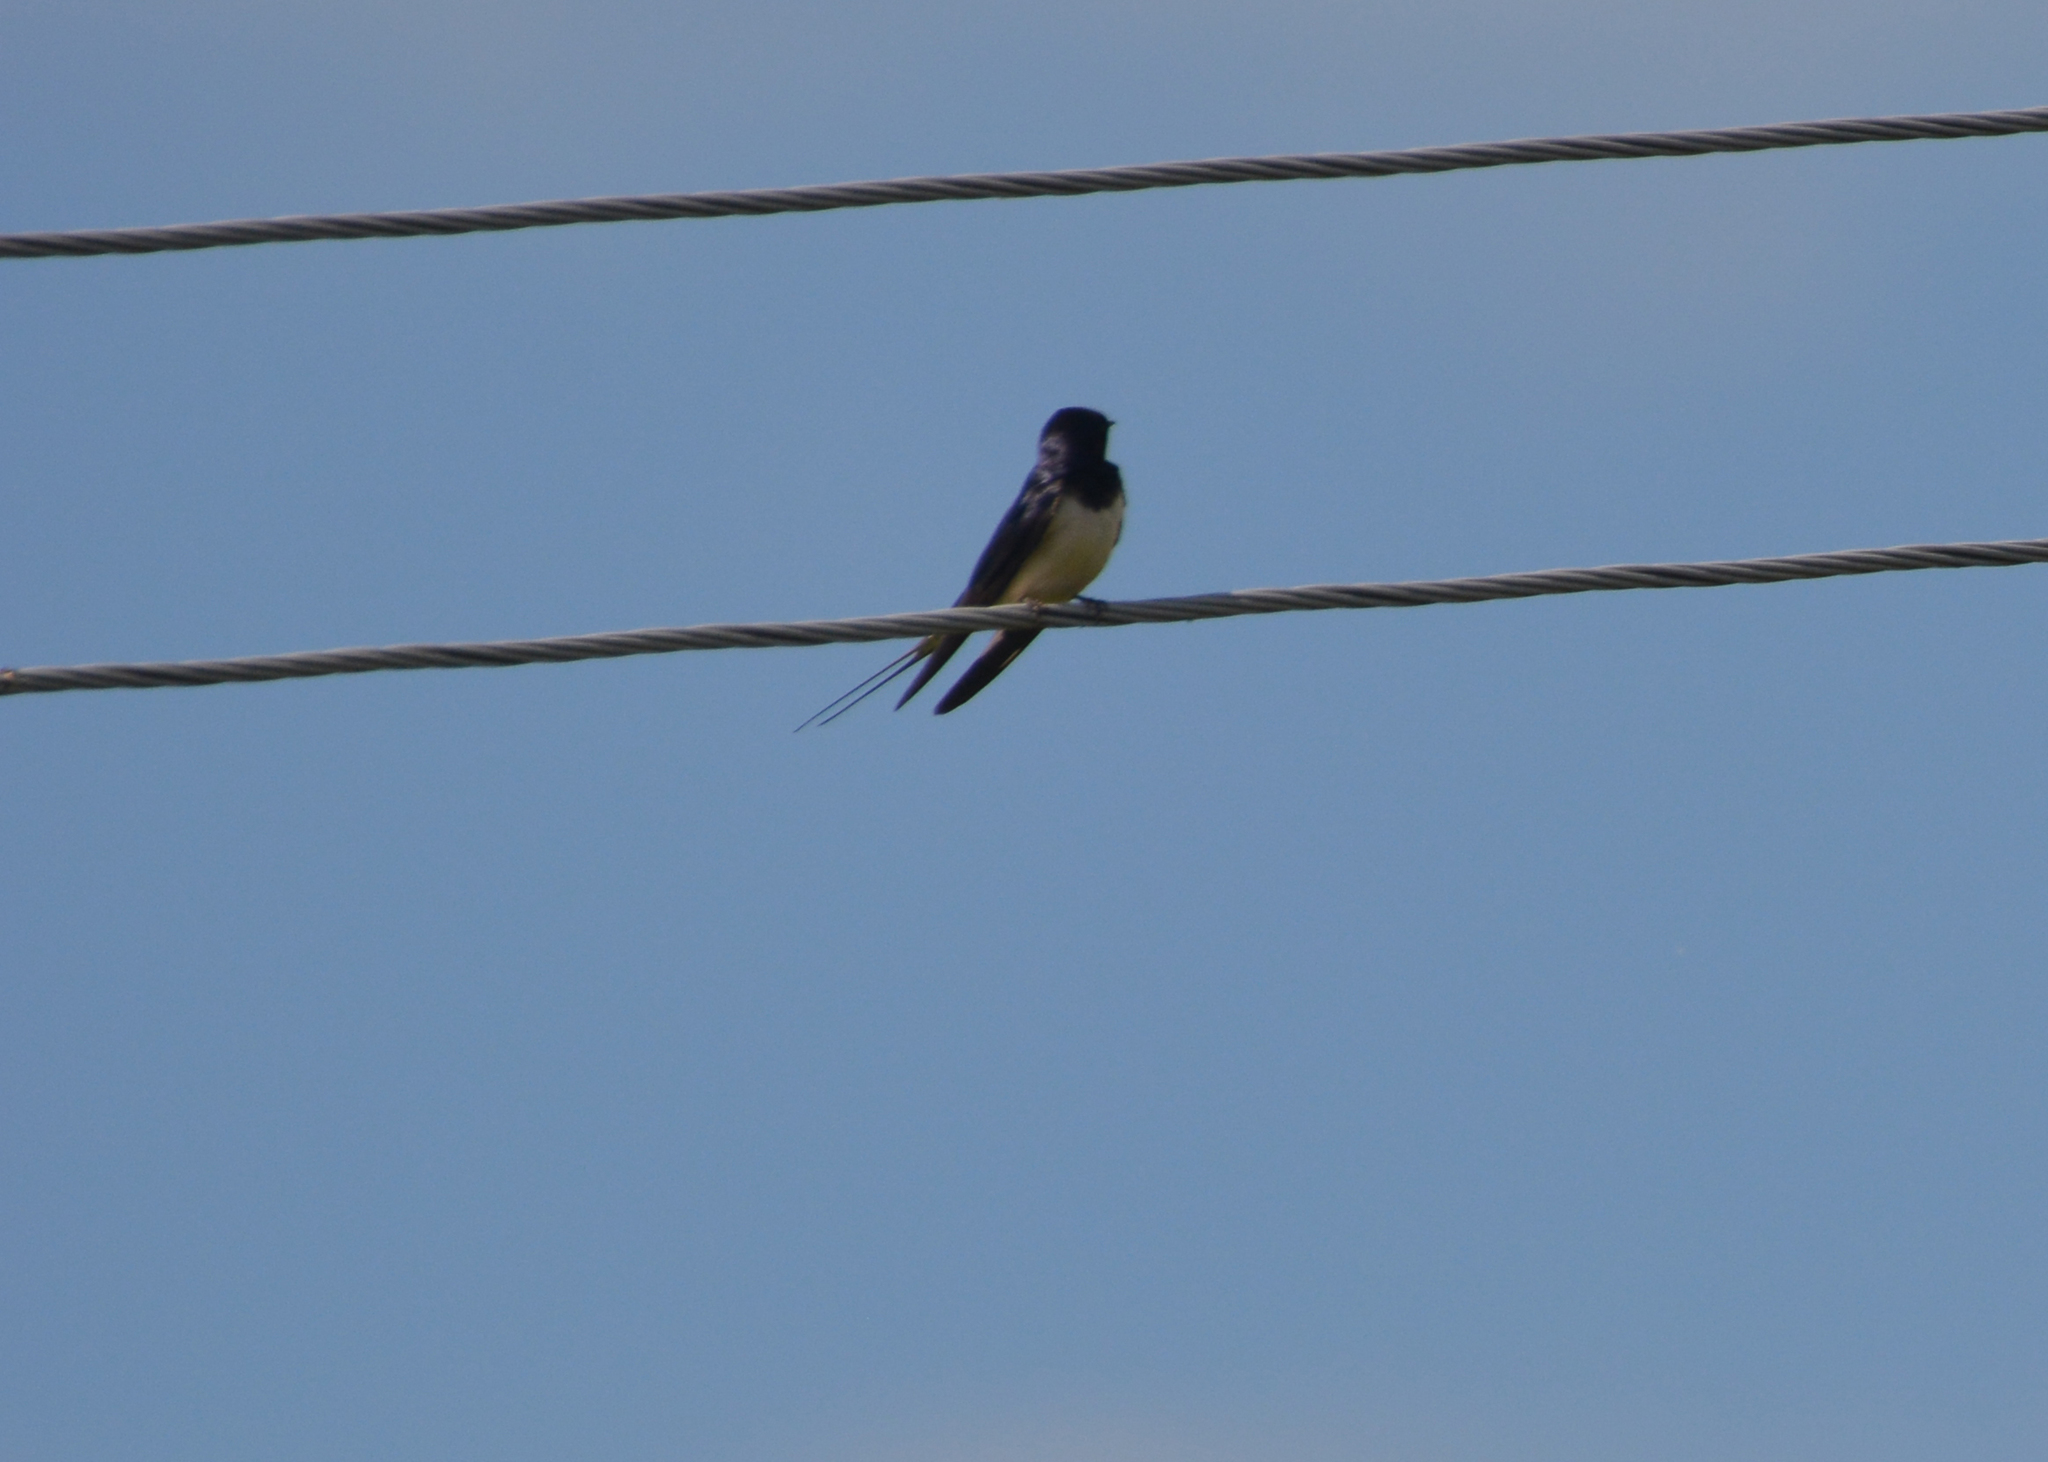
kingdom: Animalia
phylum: Chordata
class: Aves
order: Passeriformes
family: Hirundinidae
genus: Hirundo
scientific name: Hirundo rustica
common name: Barn swallow
